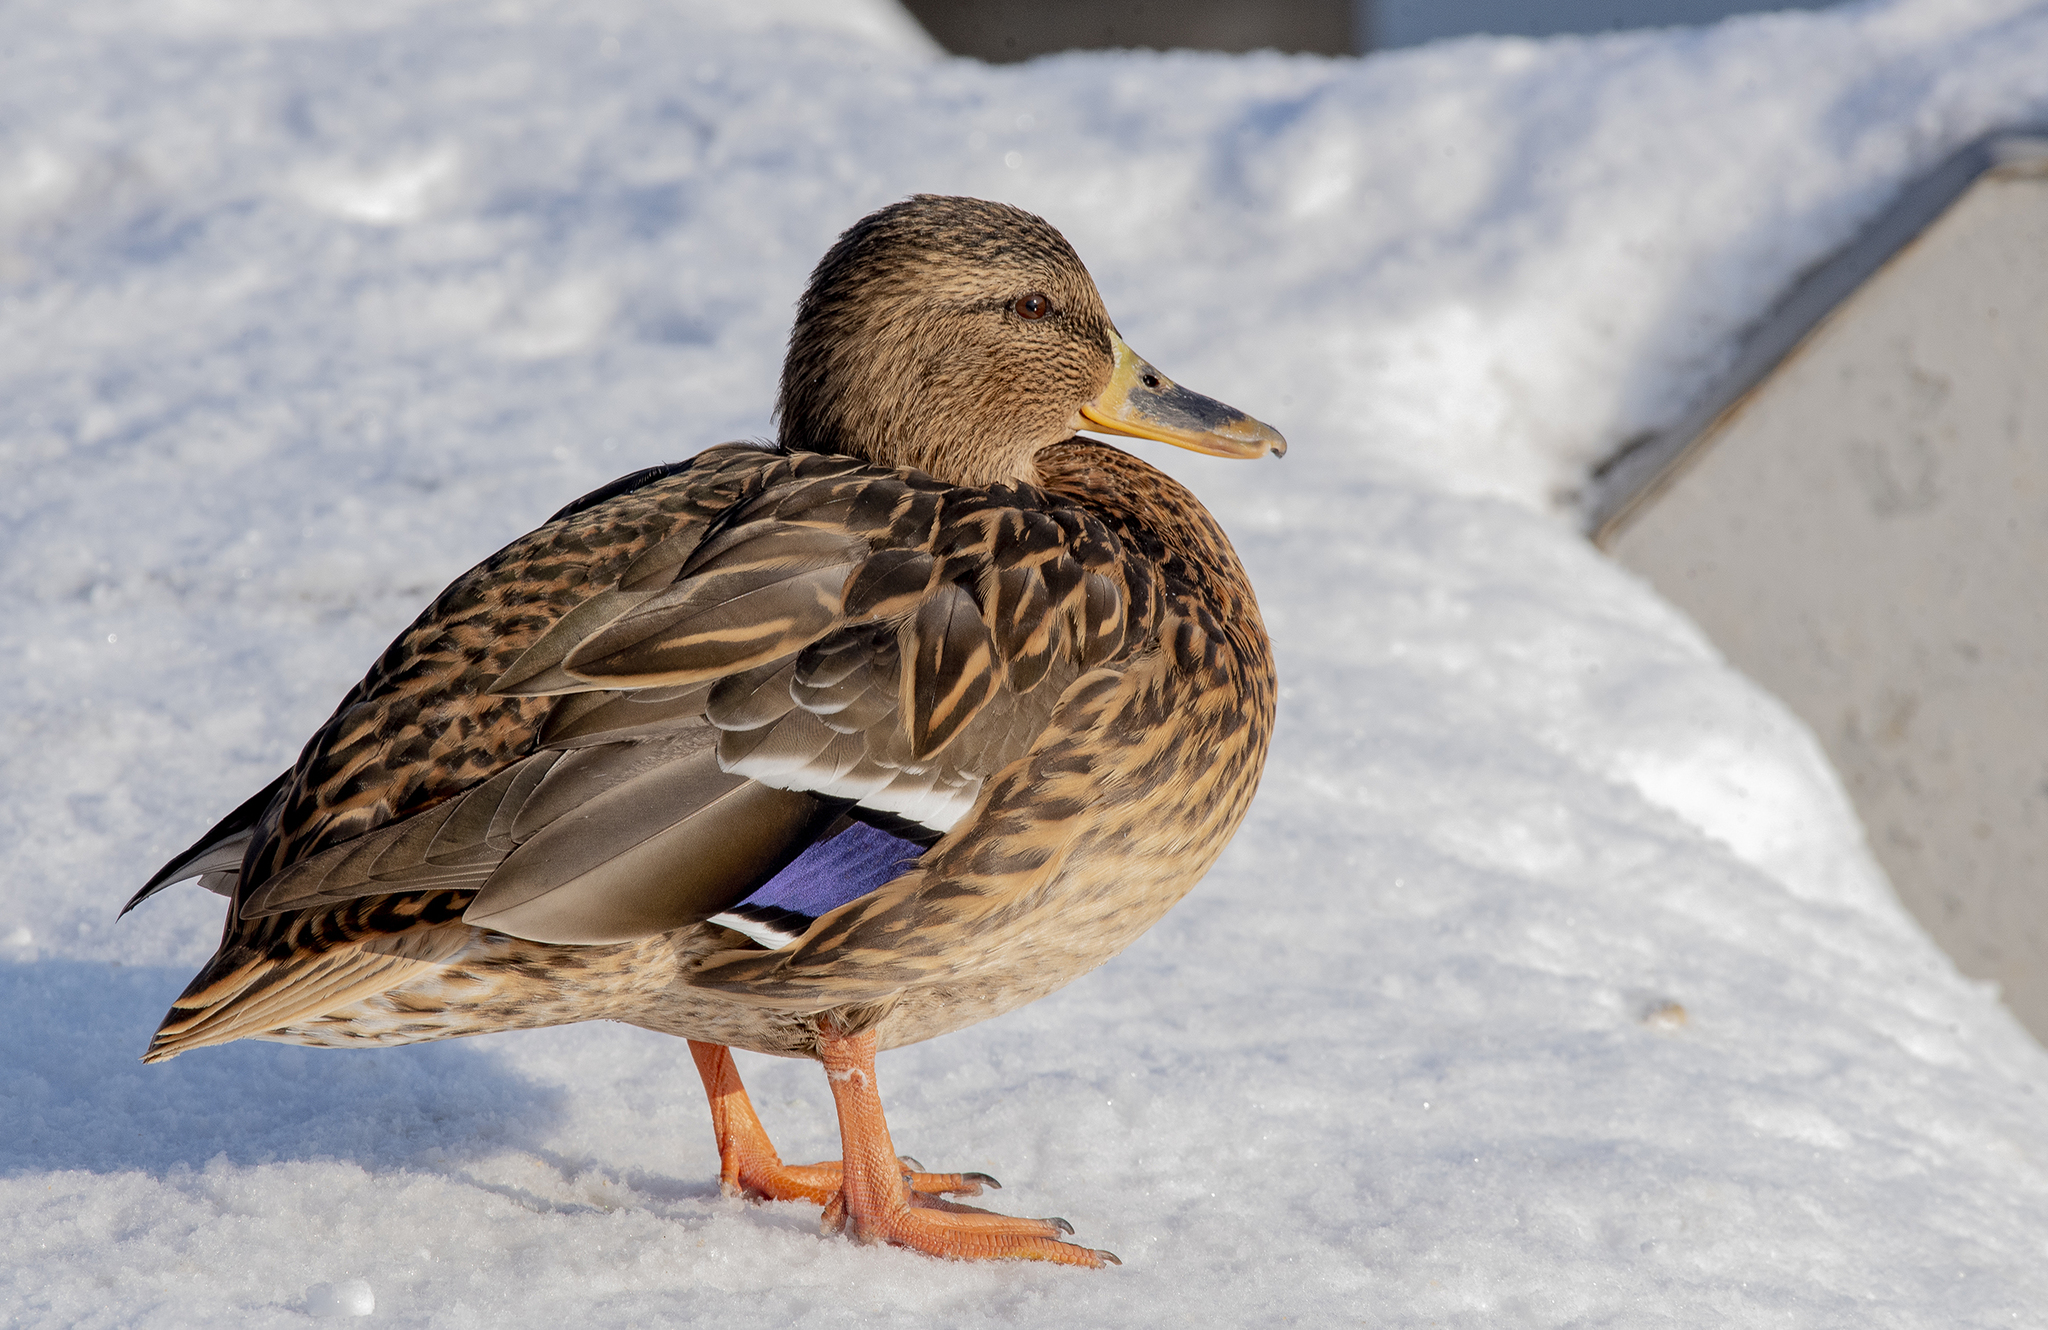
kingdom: Animalia
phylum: Chordata
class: Aves
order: Anseriformes
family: Anatidae
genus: Anas
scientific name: Anas platyrhynchos
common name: Mallard
